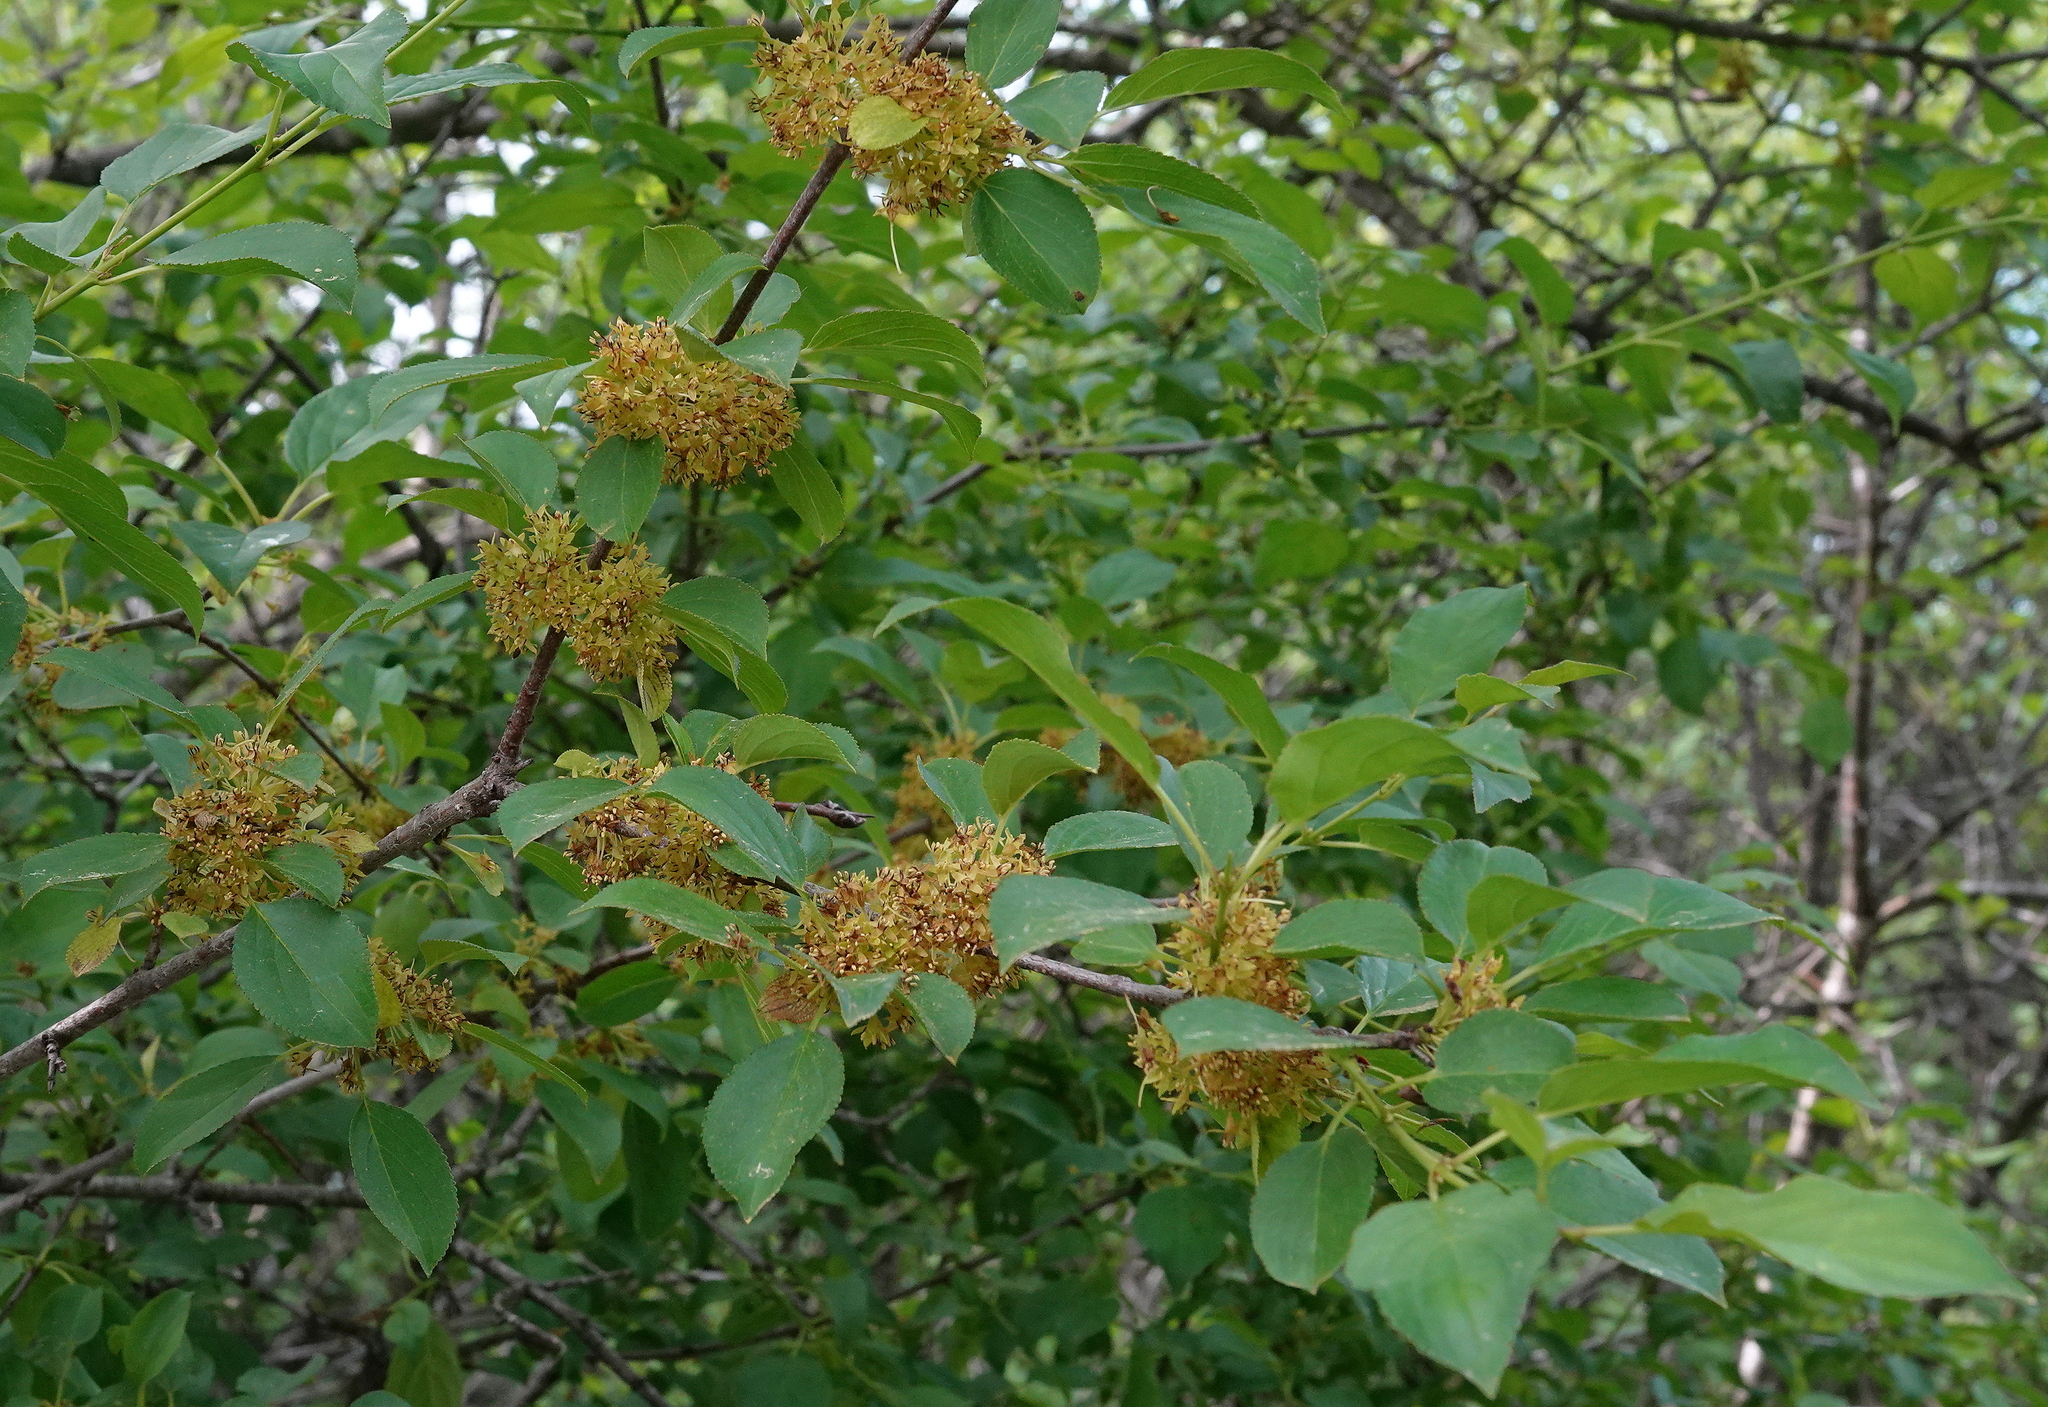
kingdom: Plantae
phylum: Tracheophyta
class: Magnoliopsida
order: Rosales
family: Rhamnaceae
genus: Rhamnus
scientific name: Rhamnus cathartica
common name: Common buckthorn
